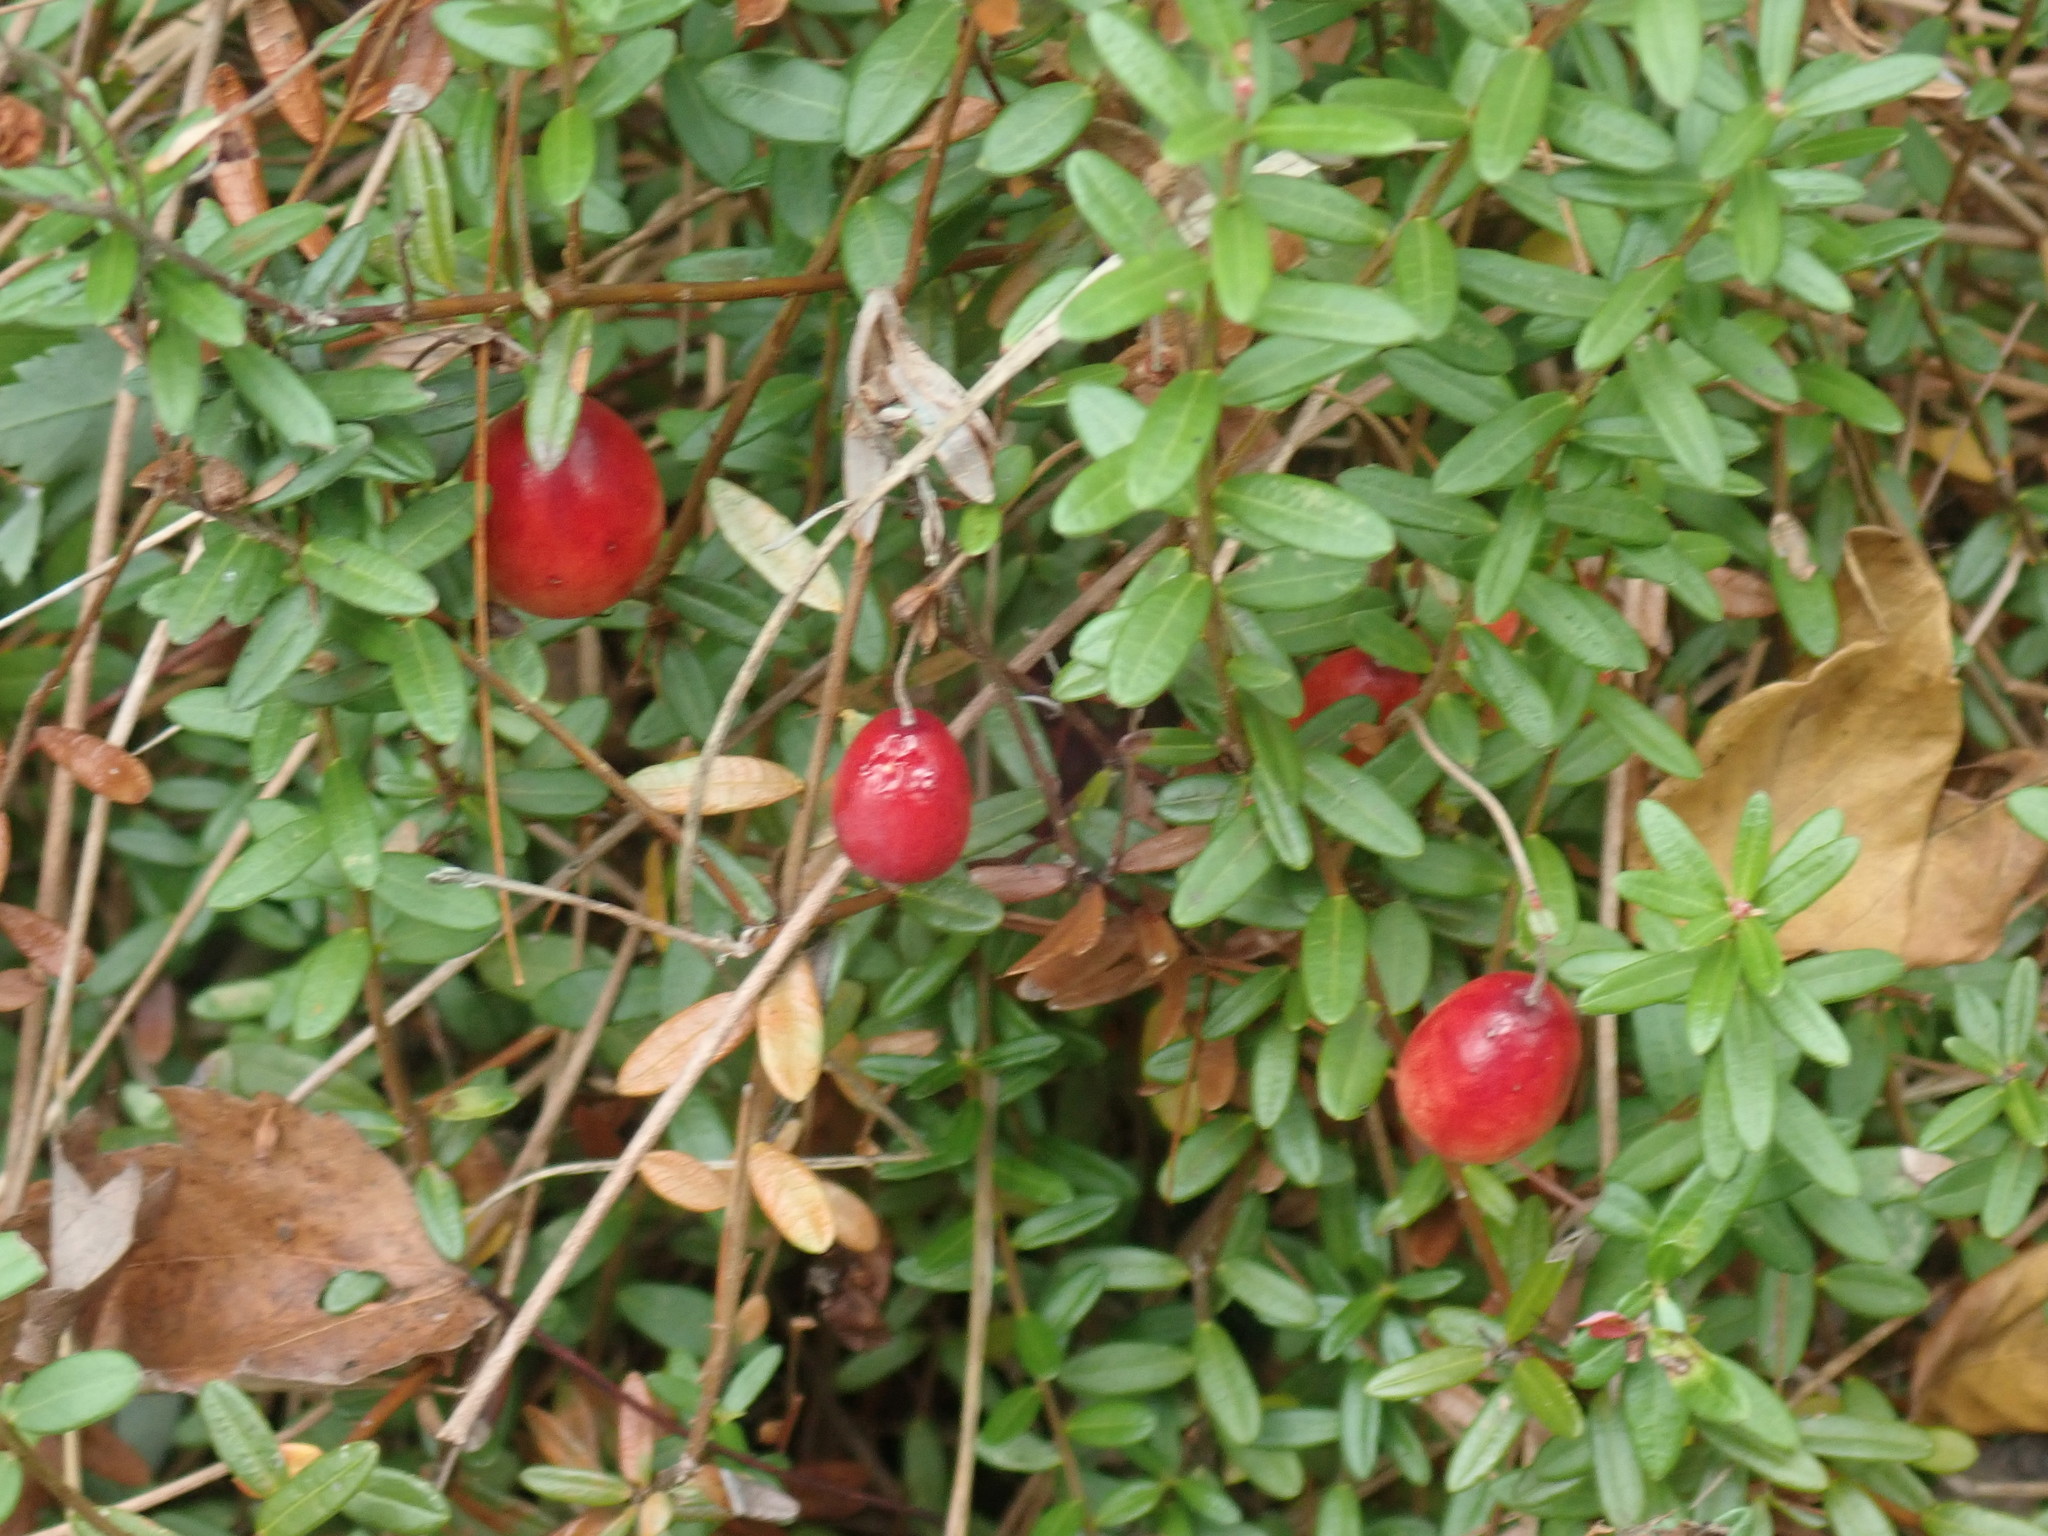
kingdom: Plantae
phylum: Tracheophyta
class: Magnoliopsida
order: Ericales
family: Ericaceae
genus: Vaccinium
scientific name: Vaccinium macrocarpon
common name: American cranberry
